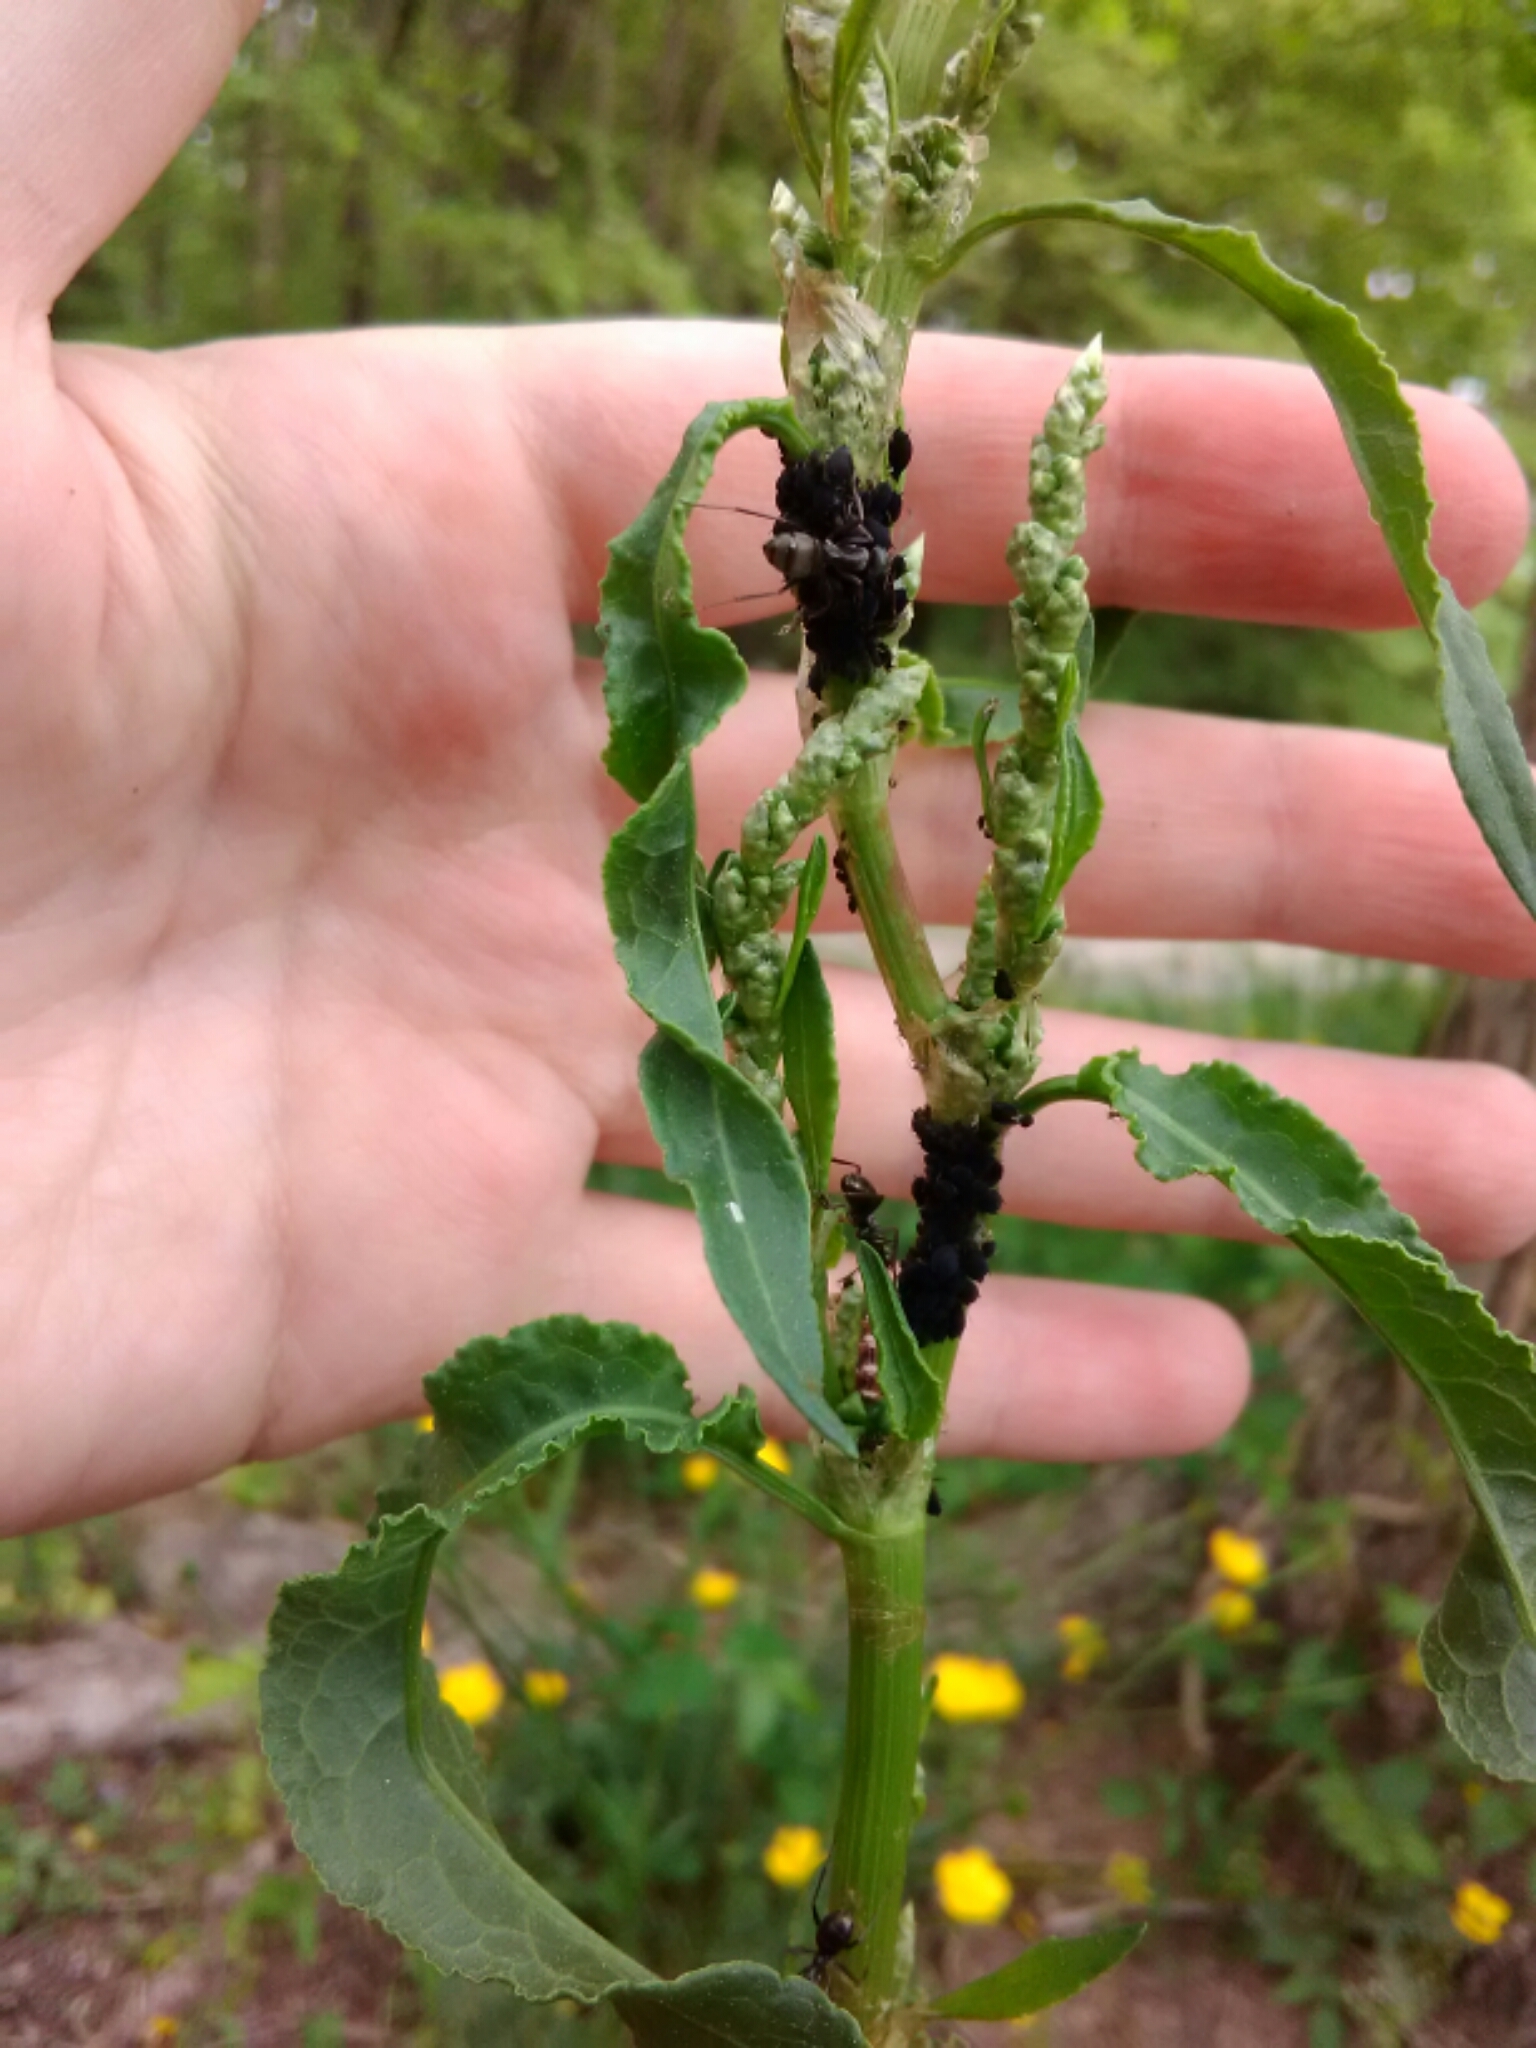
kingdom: Animalia
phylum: Arthropoda
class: Insecta
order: Hemiptera
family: Aphididae
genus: Aphis
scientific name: Aphis rumicis
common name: Aphid
